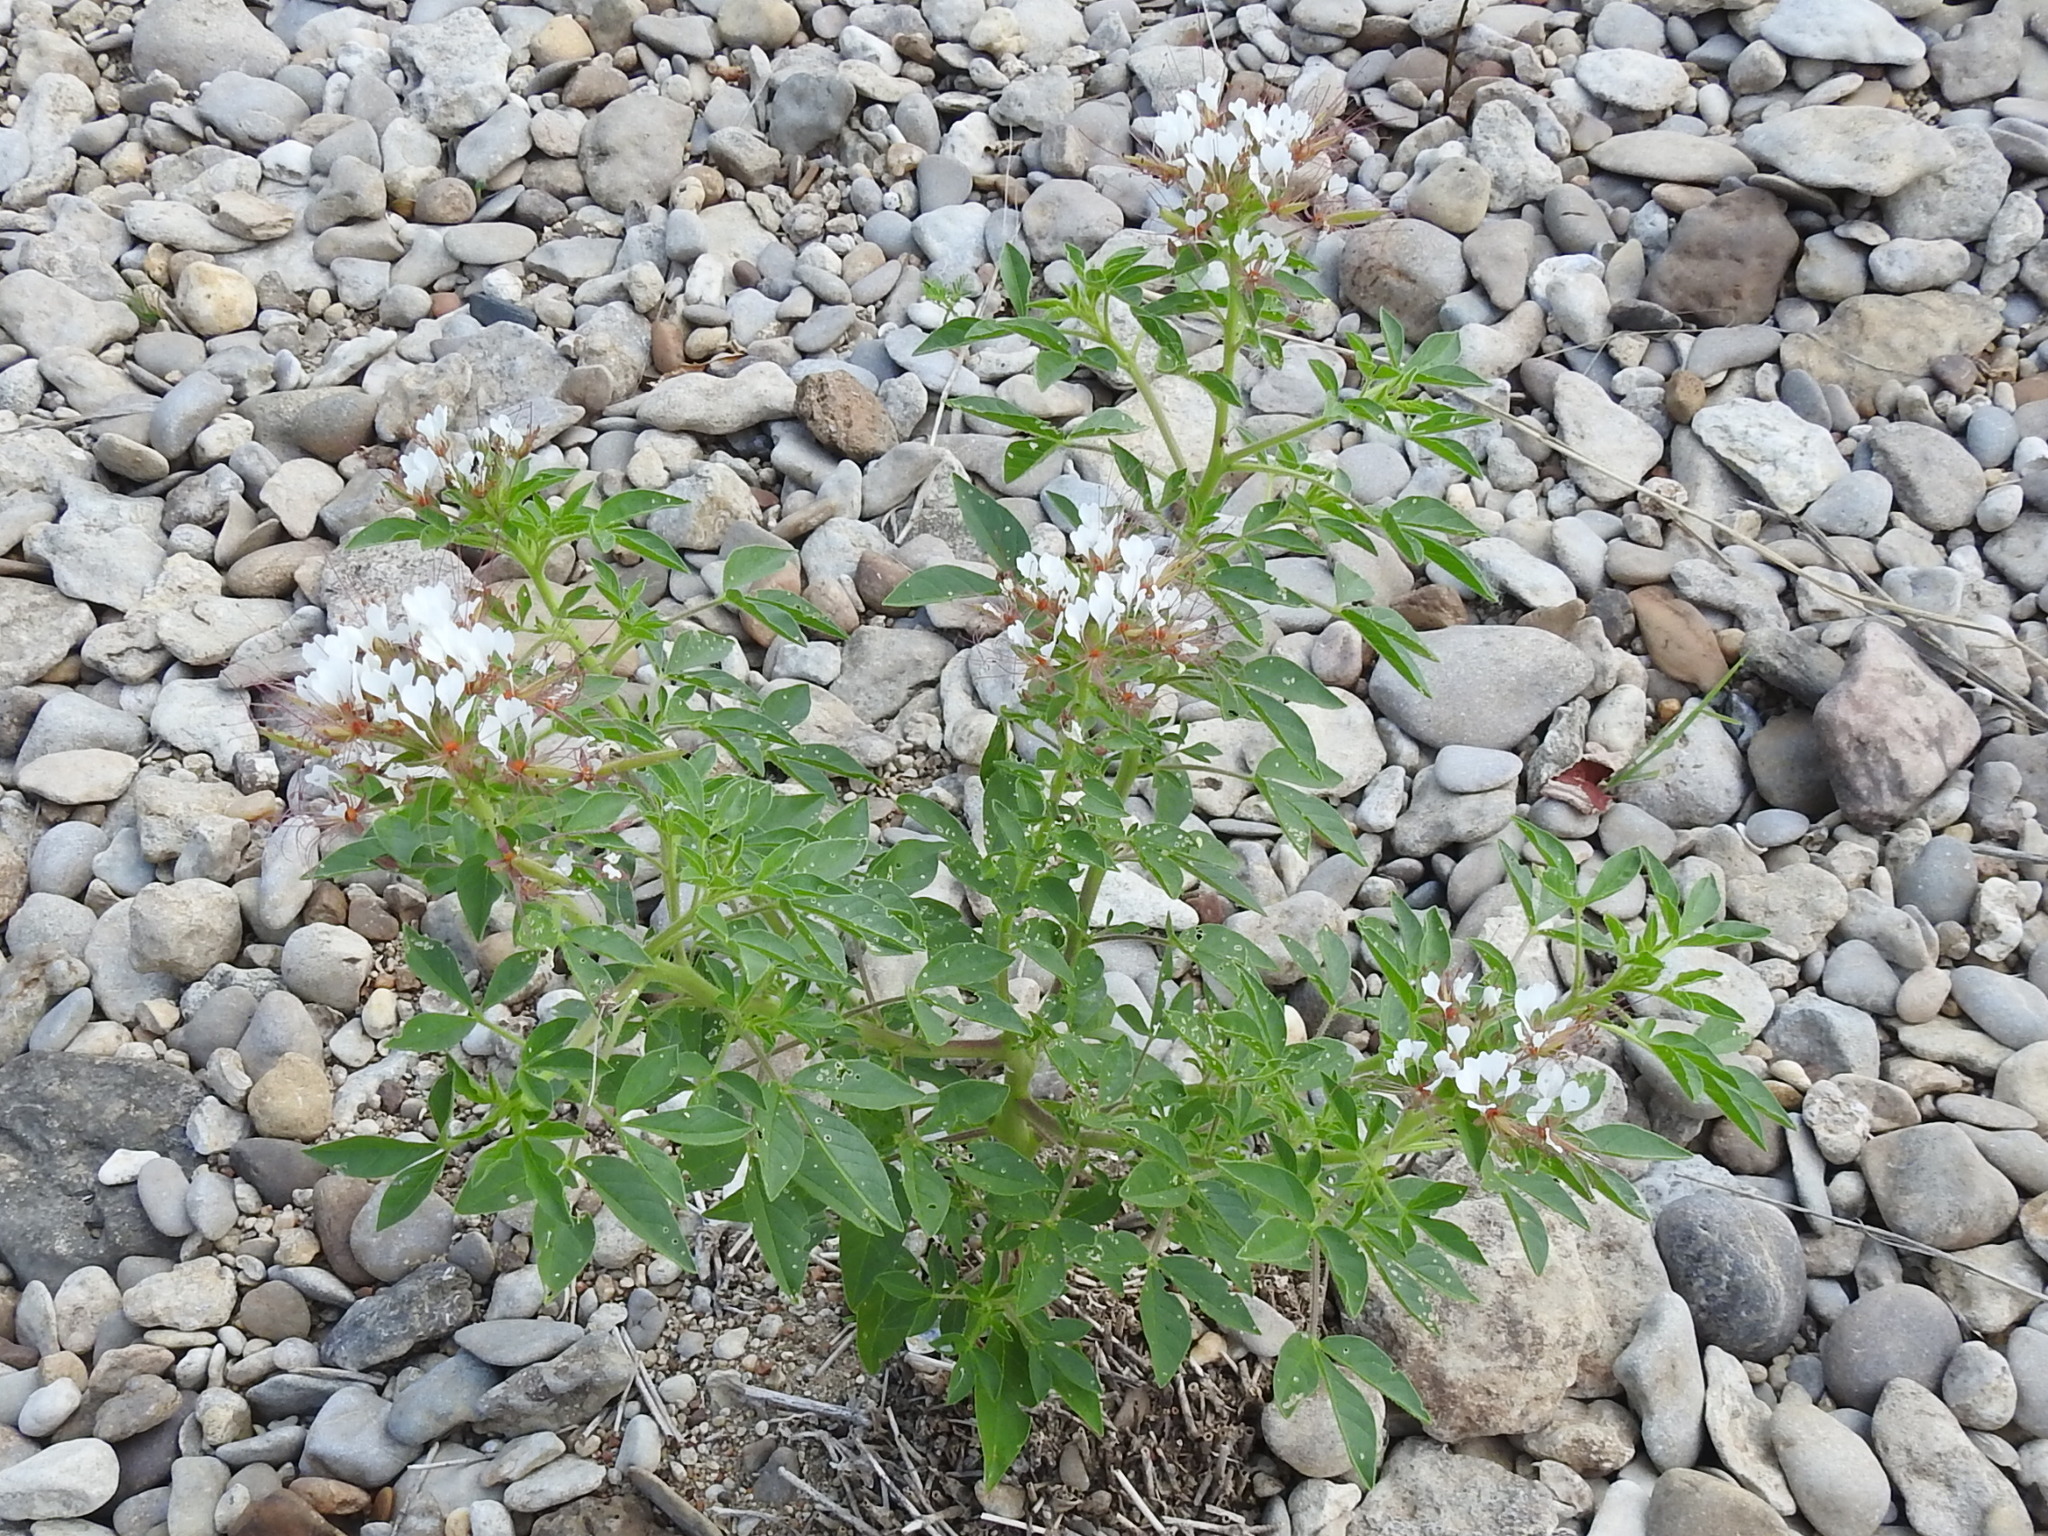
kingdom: Plantae
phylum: Tracheophyta
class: Magnoliopsida
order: Brassicales
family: Cleomaceae
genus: Polanisia
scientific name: Polanisia dodecandra
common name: Clammyweed
